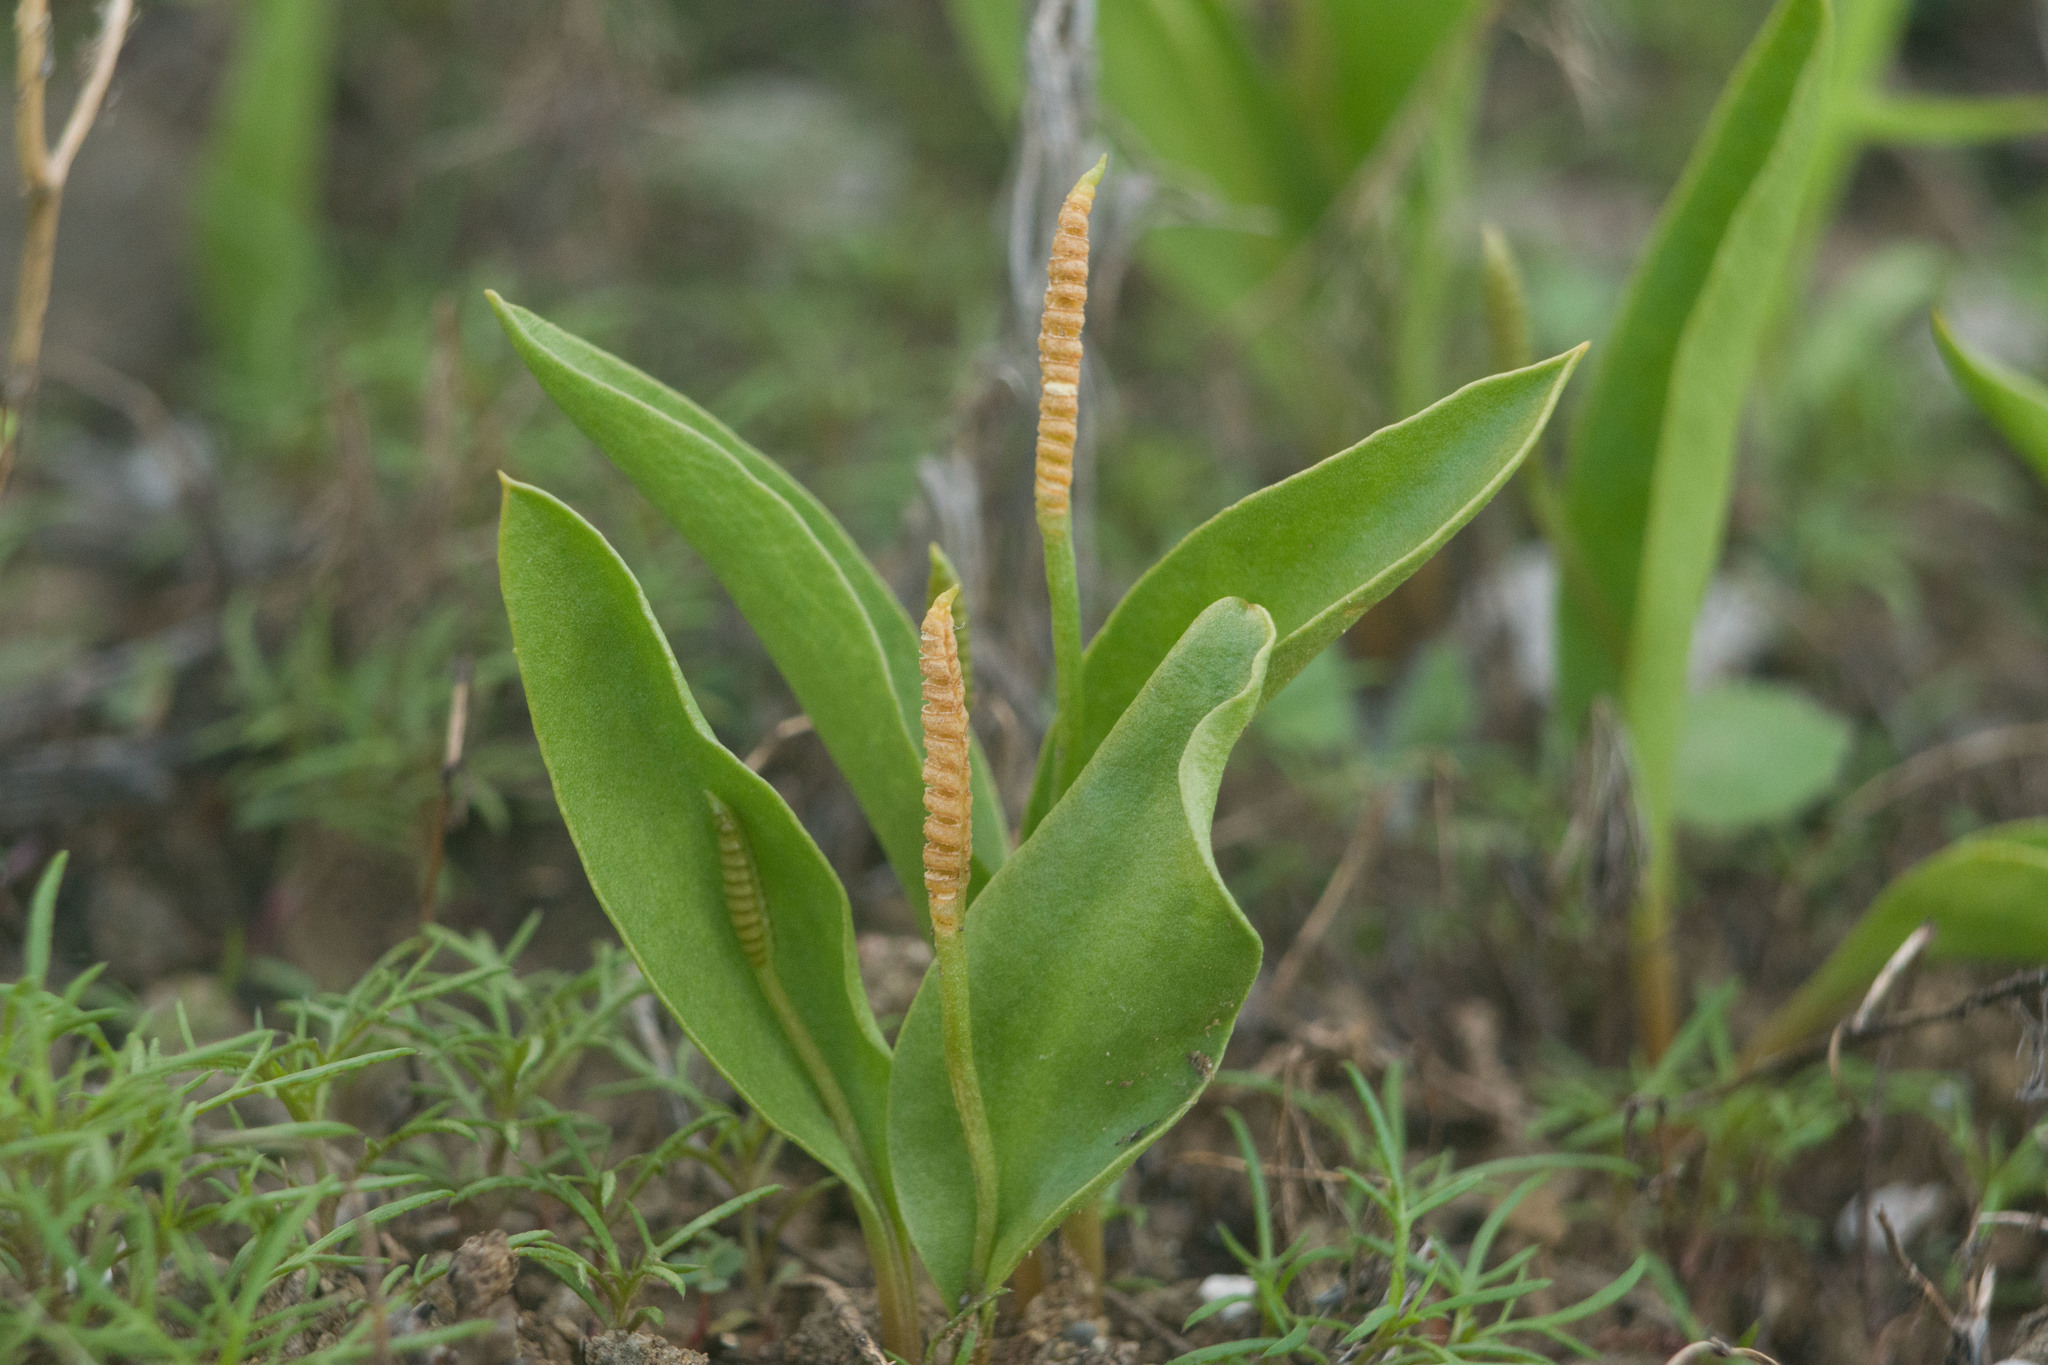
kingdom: Plantae
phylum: Tracheophyta
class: Polypodiopsida
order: Ophioglossales
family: Ophioglossaceae
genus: Ophioglossum
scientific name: Ophioglossum polyphyllum
